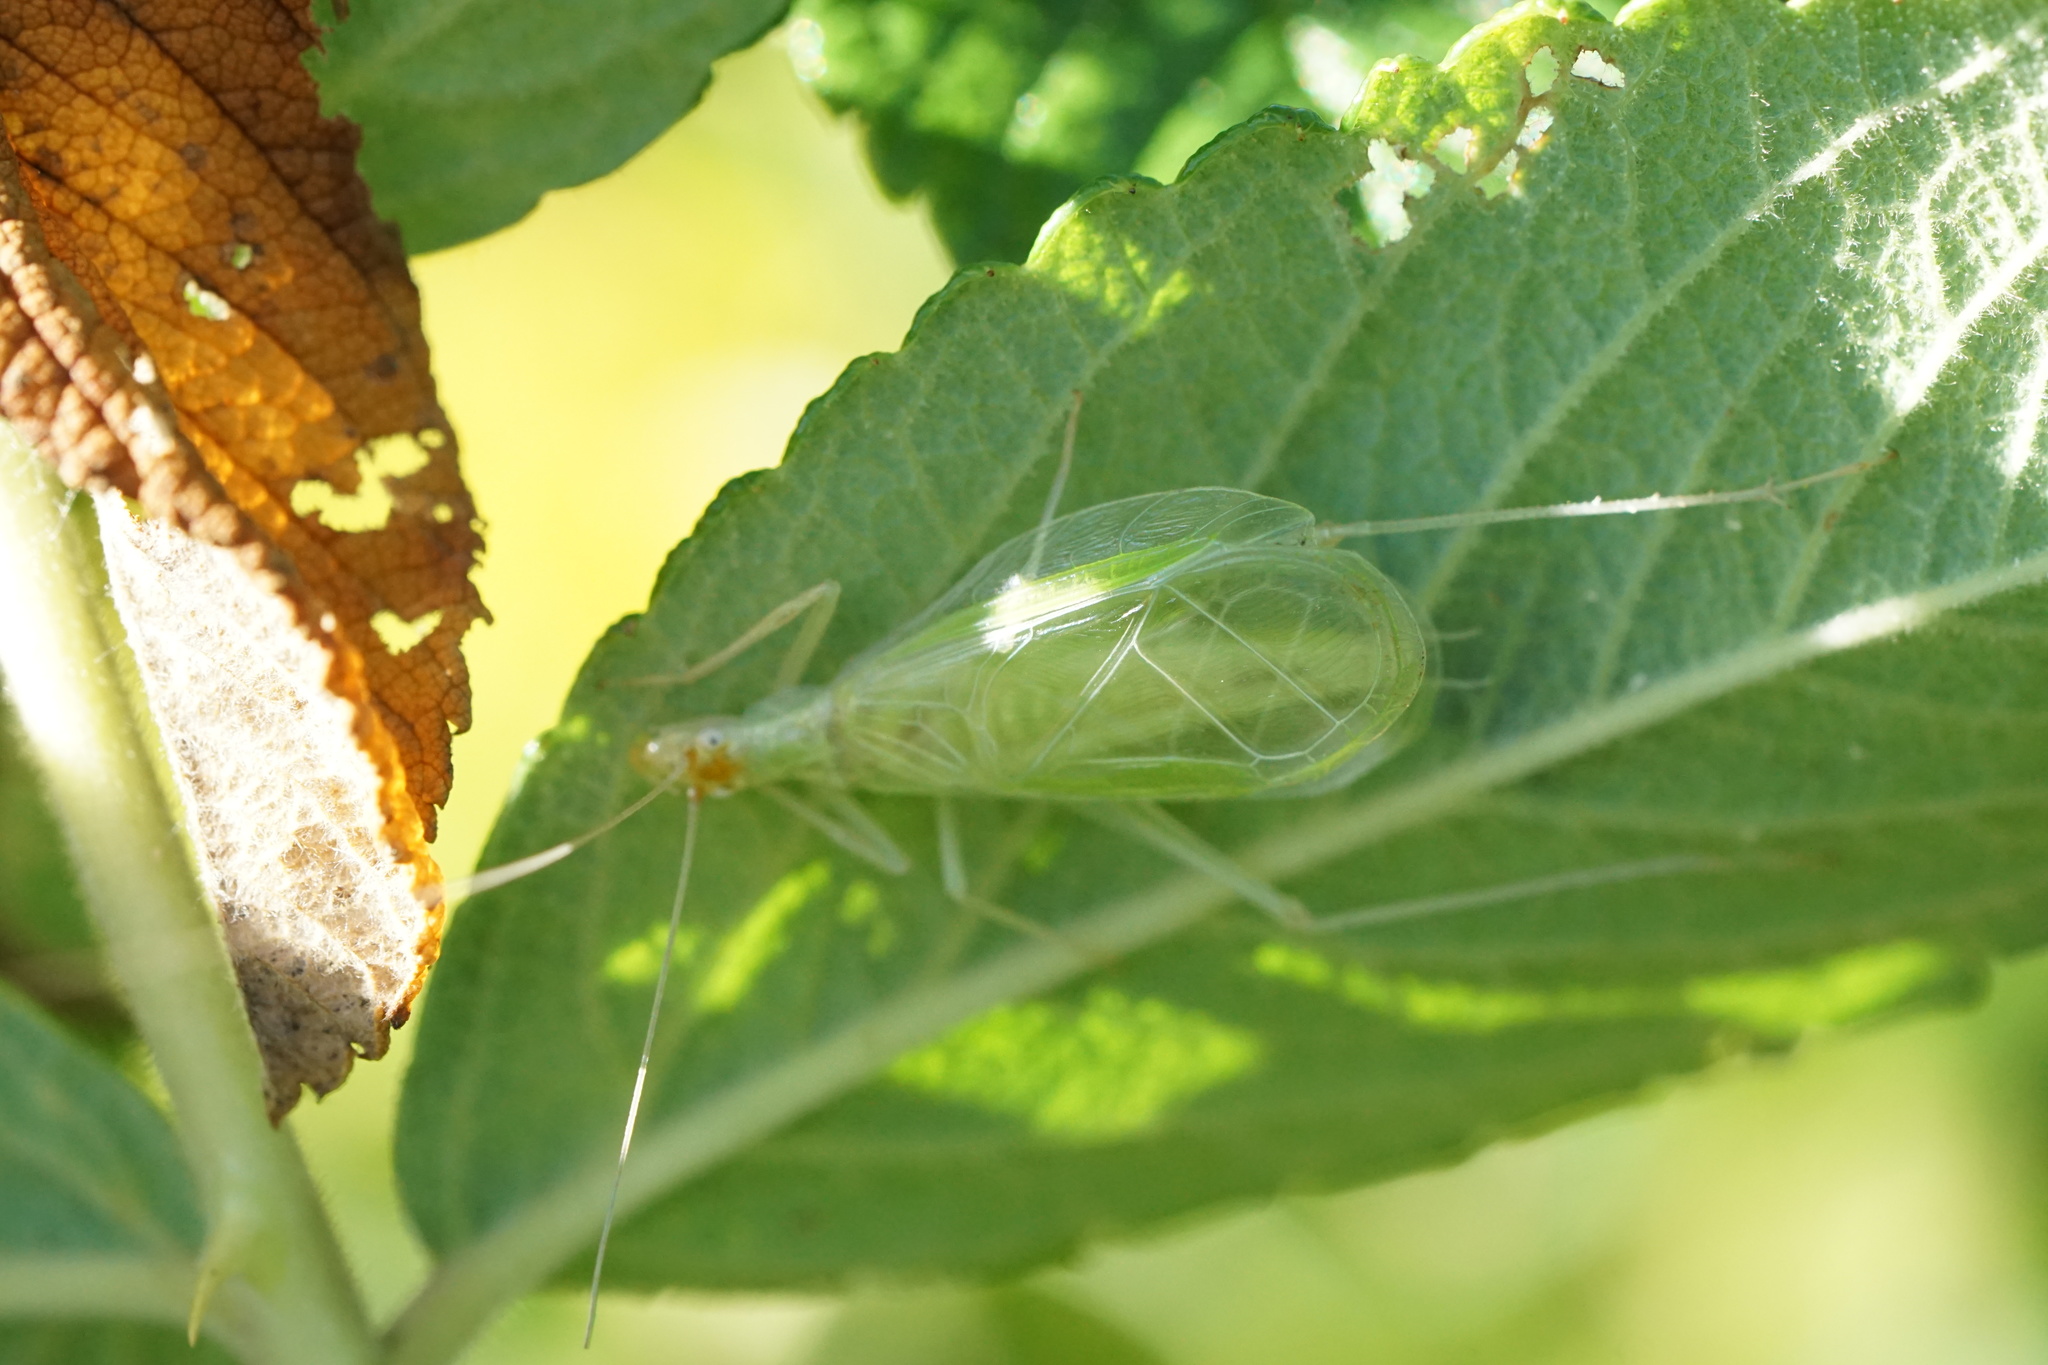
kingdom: Animalia
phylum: Arthropoda
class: Insecta
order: Orthoptera
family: Gryllidae
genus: Oecanthus
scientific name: Oecanthus fultoni
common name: Snowy tree cricket
